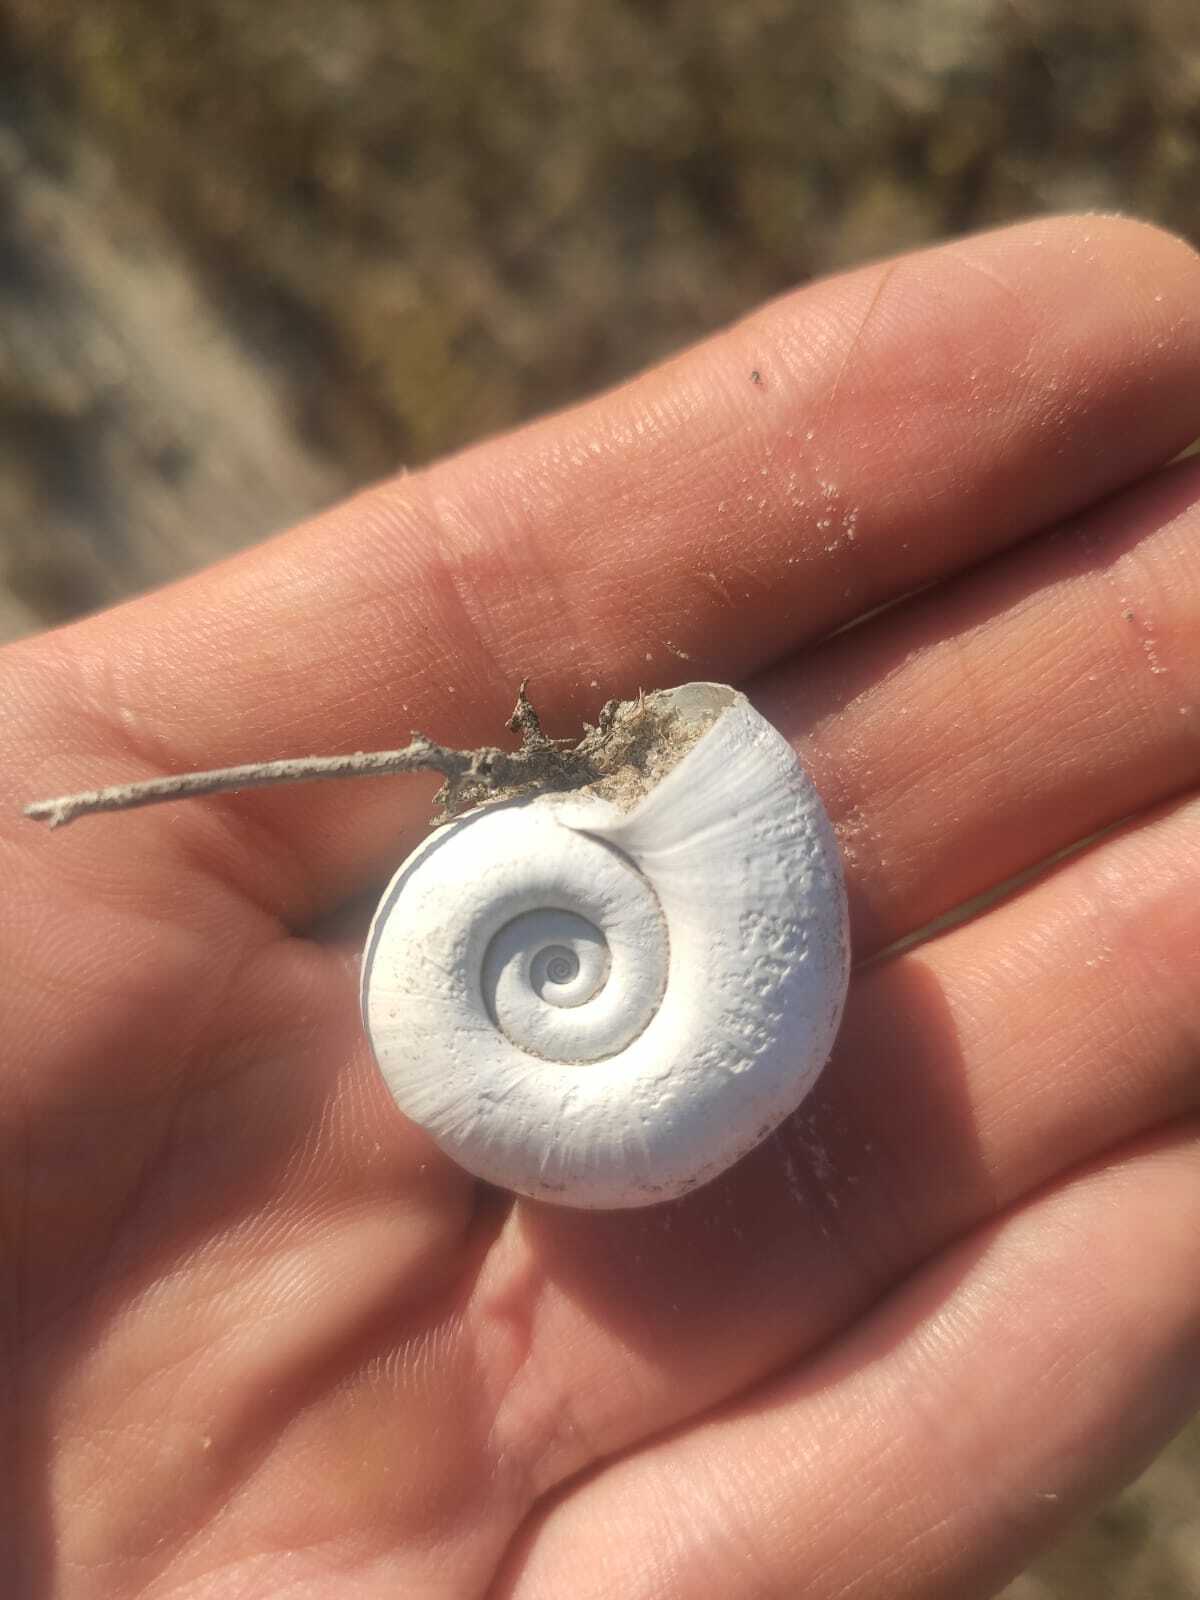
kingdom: Animalia
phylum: Mollusca
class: Gastropoda
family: Planorbidae
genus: Planorbarius
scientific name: Planorbarius corneus
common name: Great ramshorn
